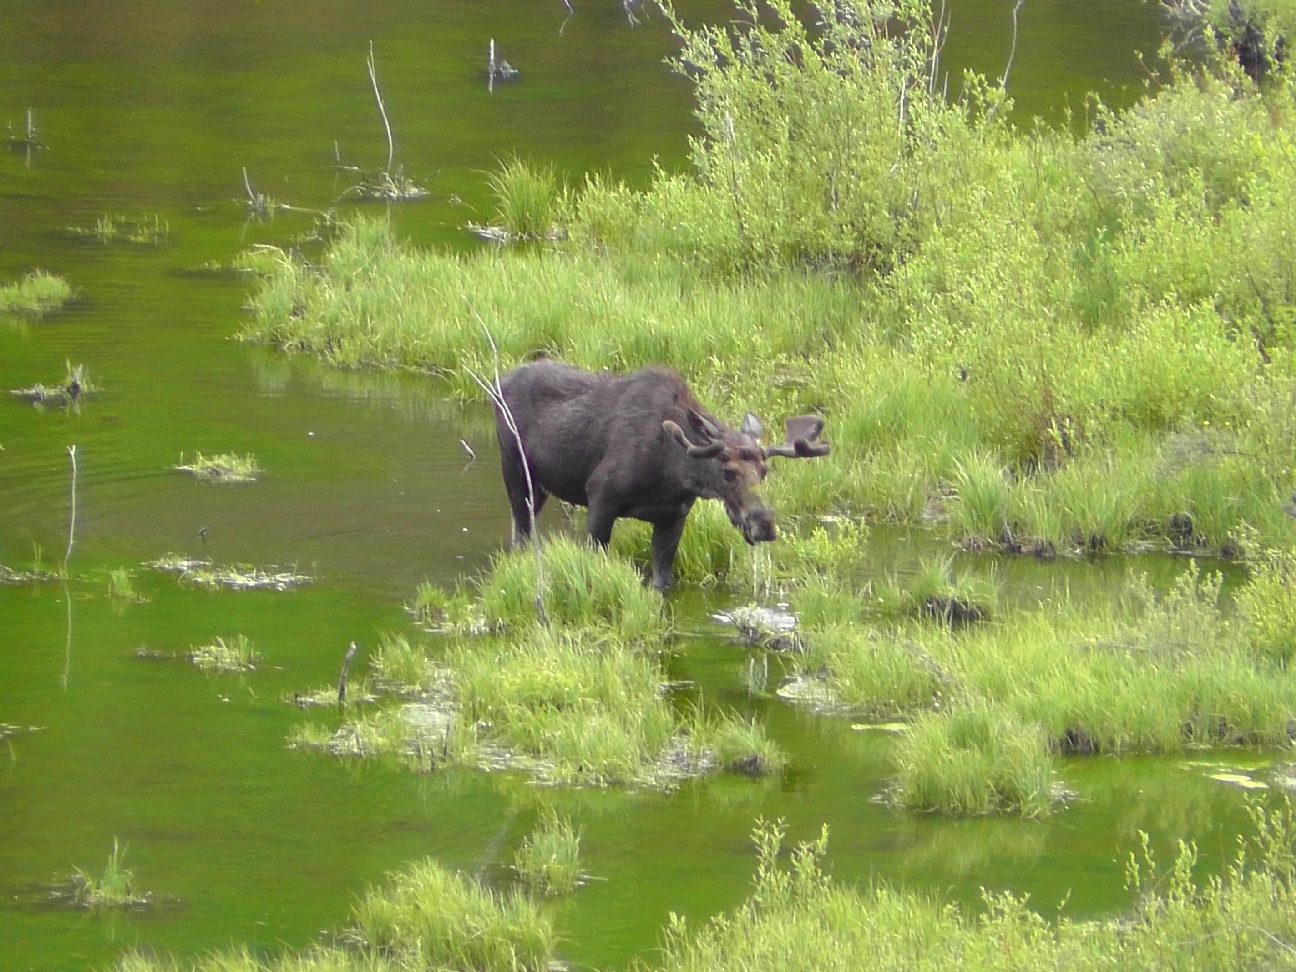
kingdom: Animalia
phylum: Chordata
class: Mammalia
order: Artiodactyla
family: Cervidae
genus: Alces
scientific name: Alces alces
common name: Moose
